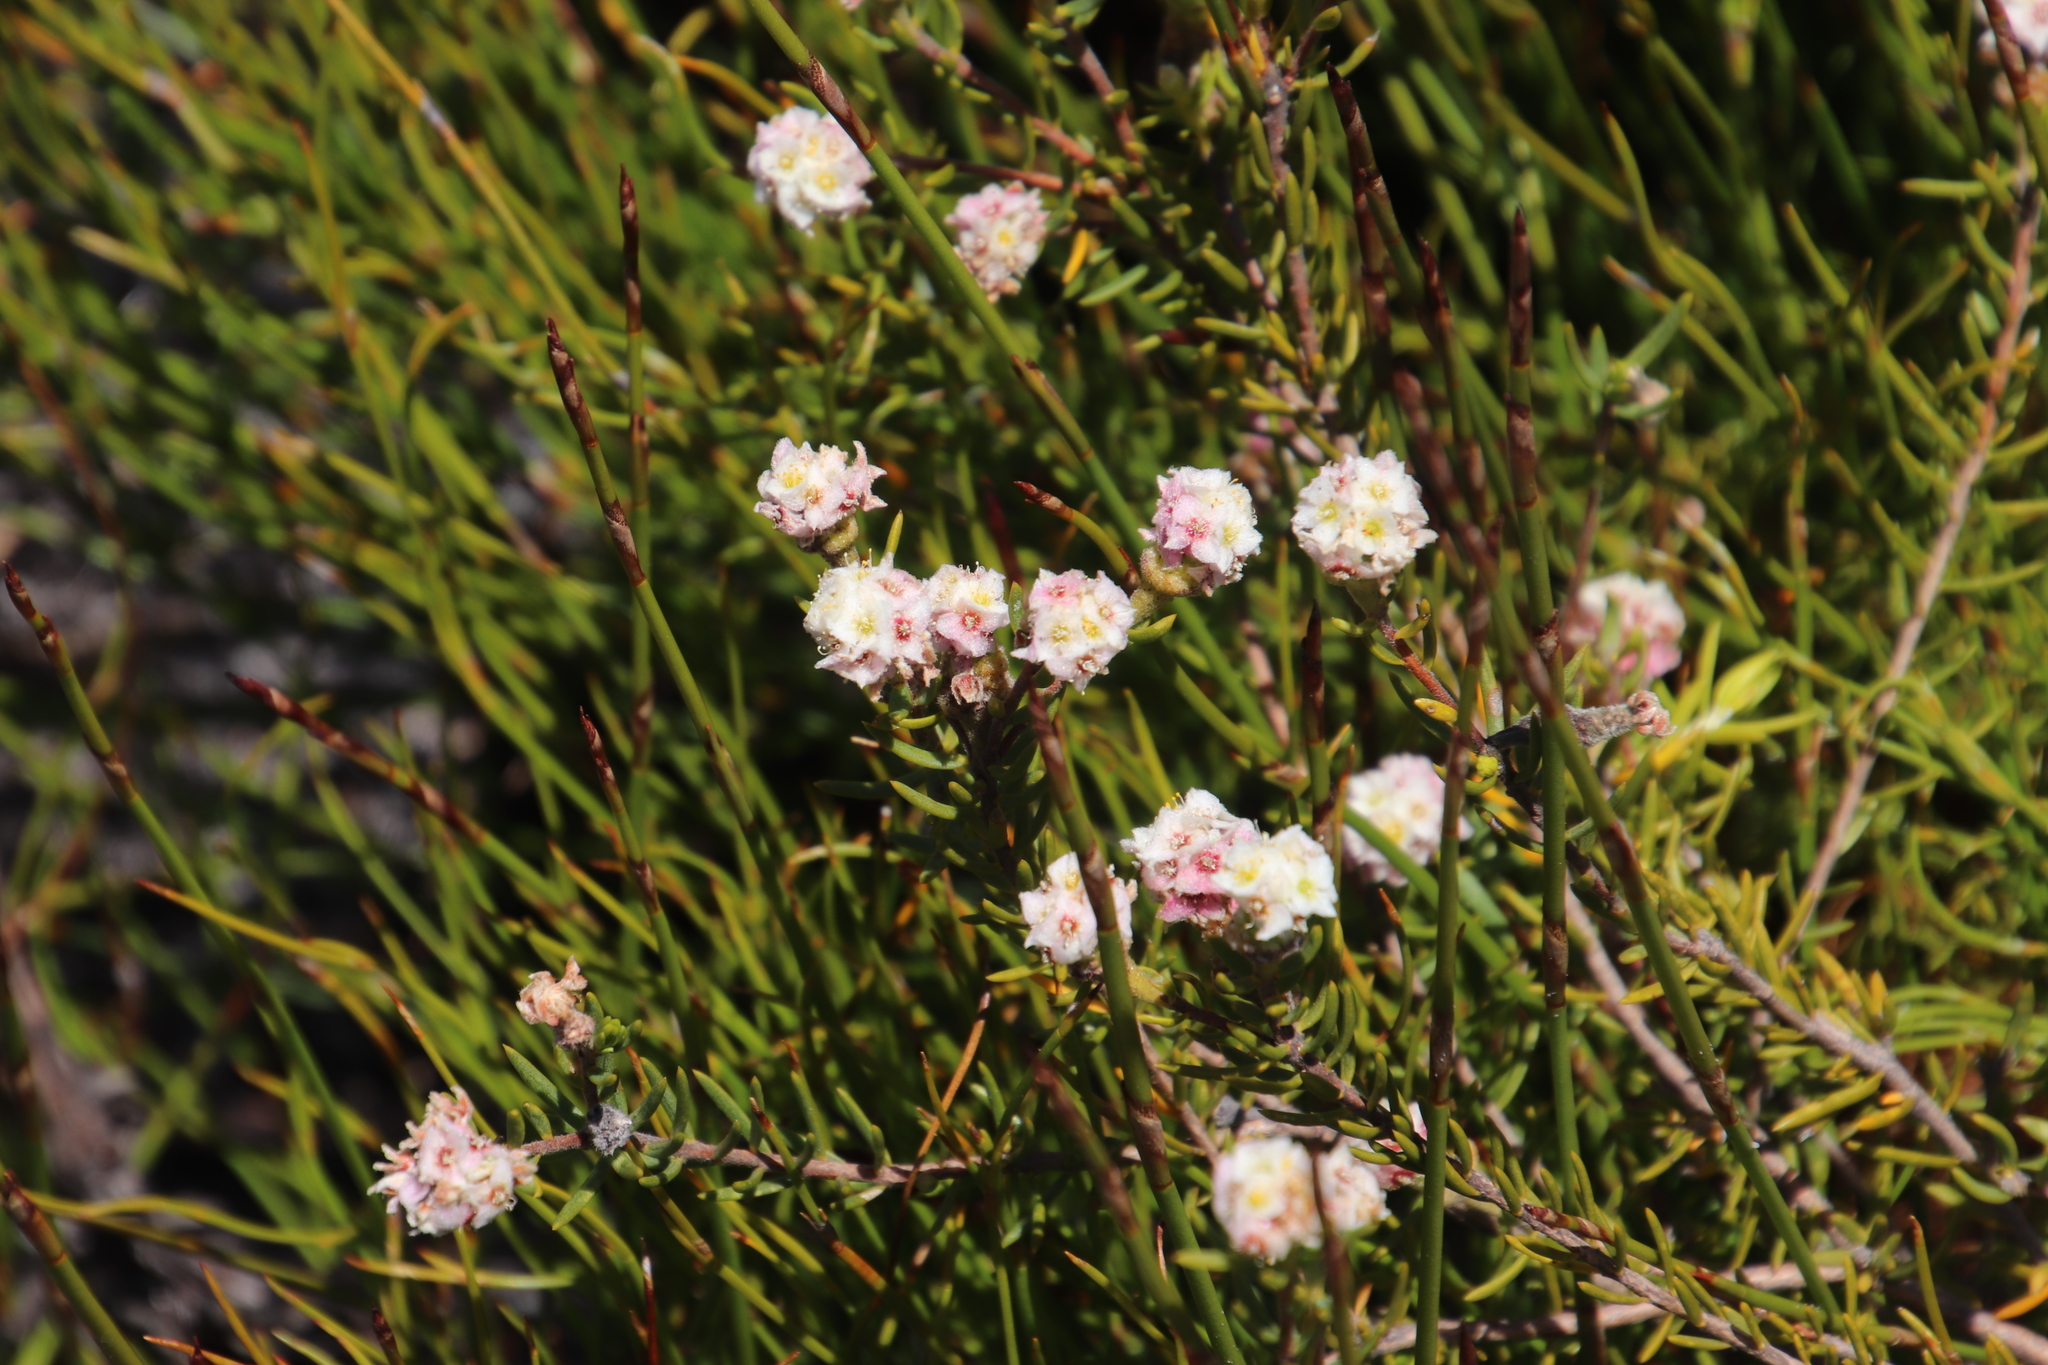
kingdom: Plantae
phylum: Tracheophyta
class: Magnoliopsida
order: Malvales
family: Thymelaeaceae
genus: Lachnaea
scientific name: Lachnaea densiflora
